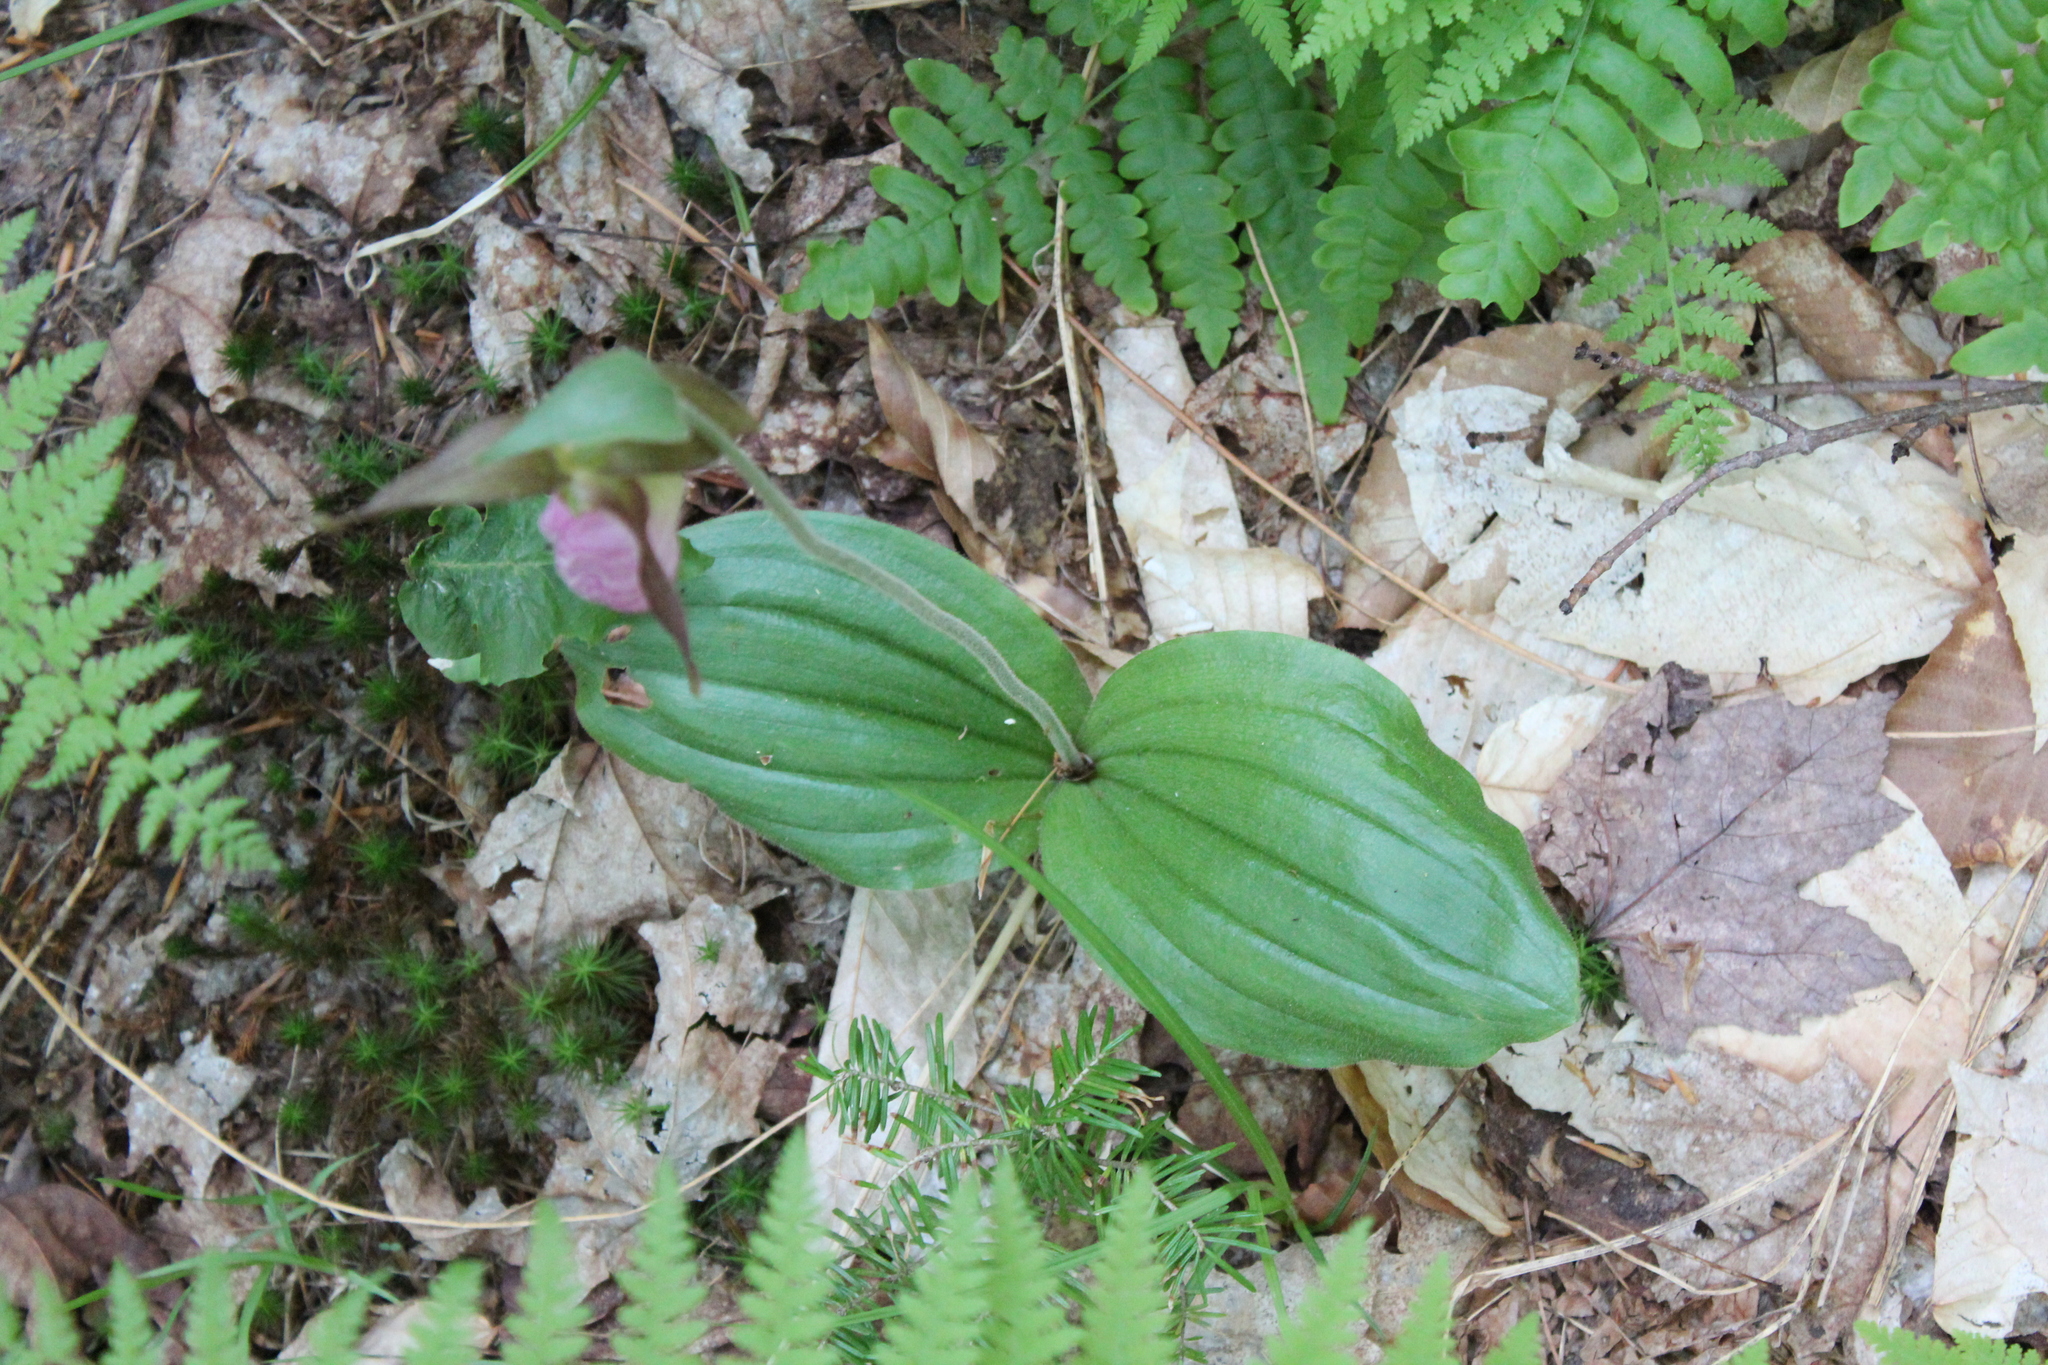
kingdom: Plantae
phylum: Tracheophyta
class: Liliopsida
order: Asparagales
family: Orchidaceae
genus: Cypripedium
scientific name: Cypripedium acaule
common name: Pink lady's-slipper
